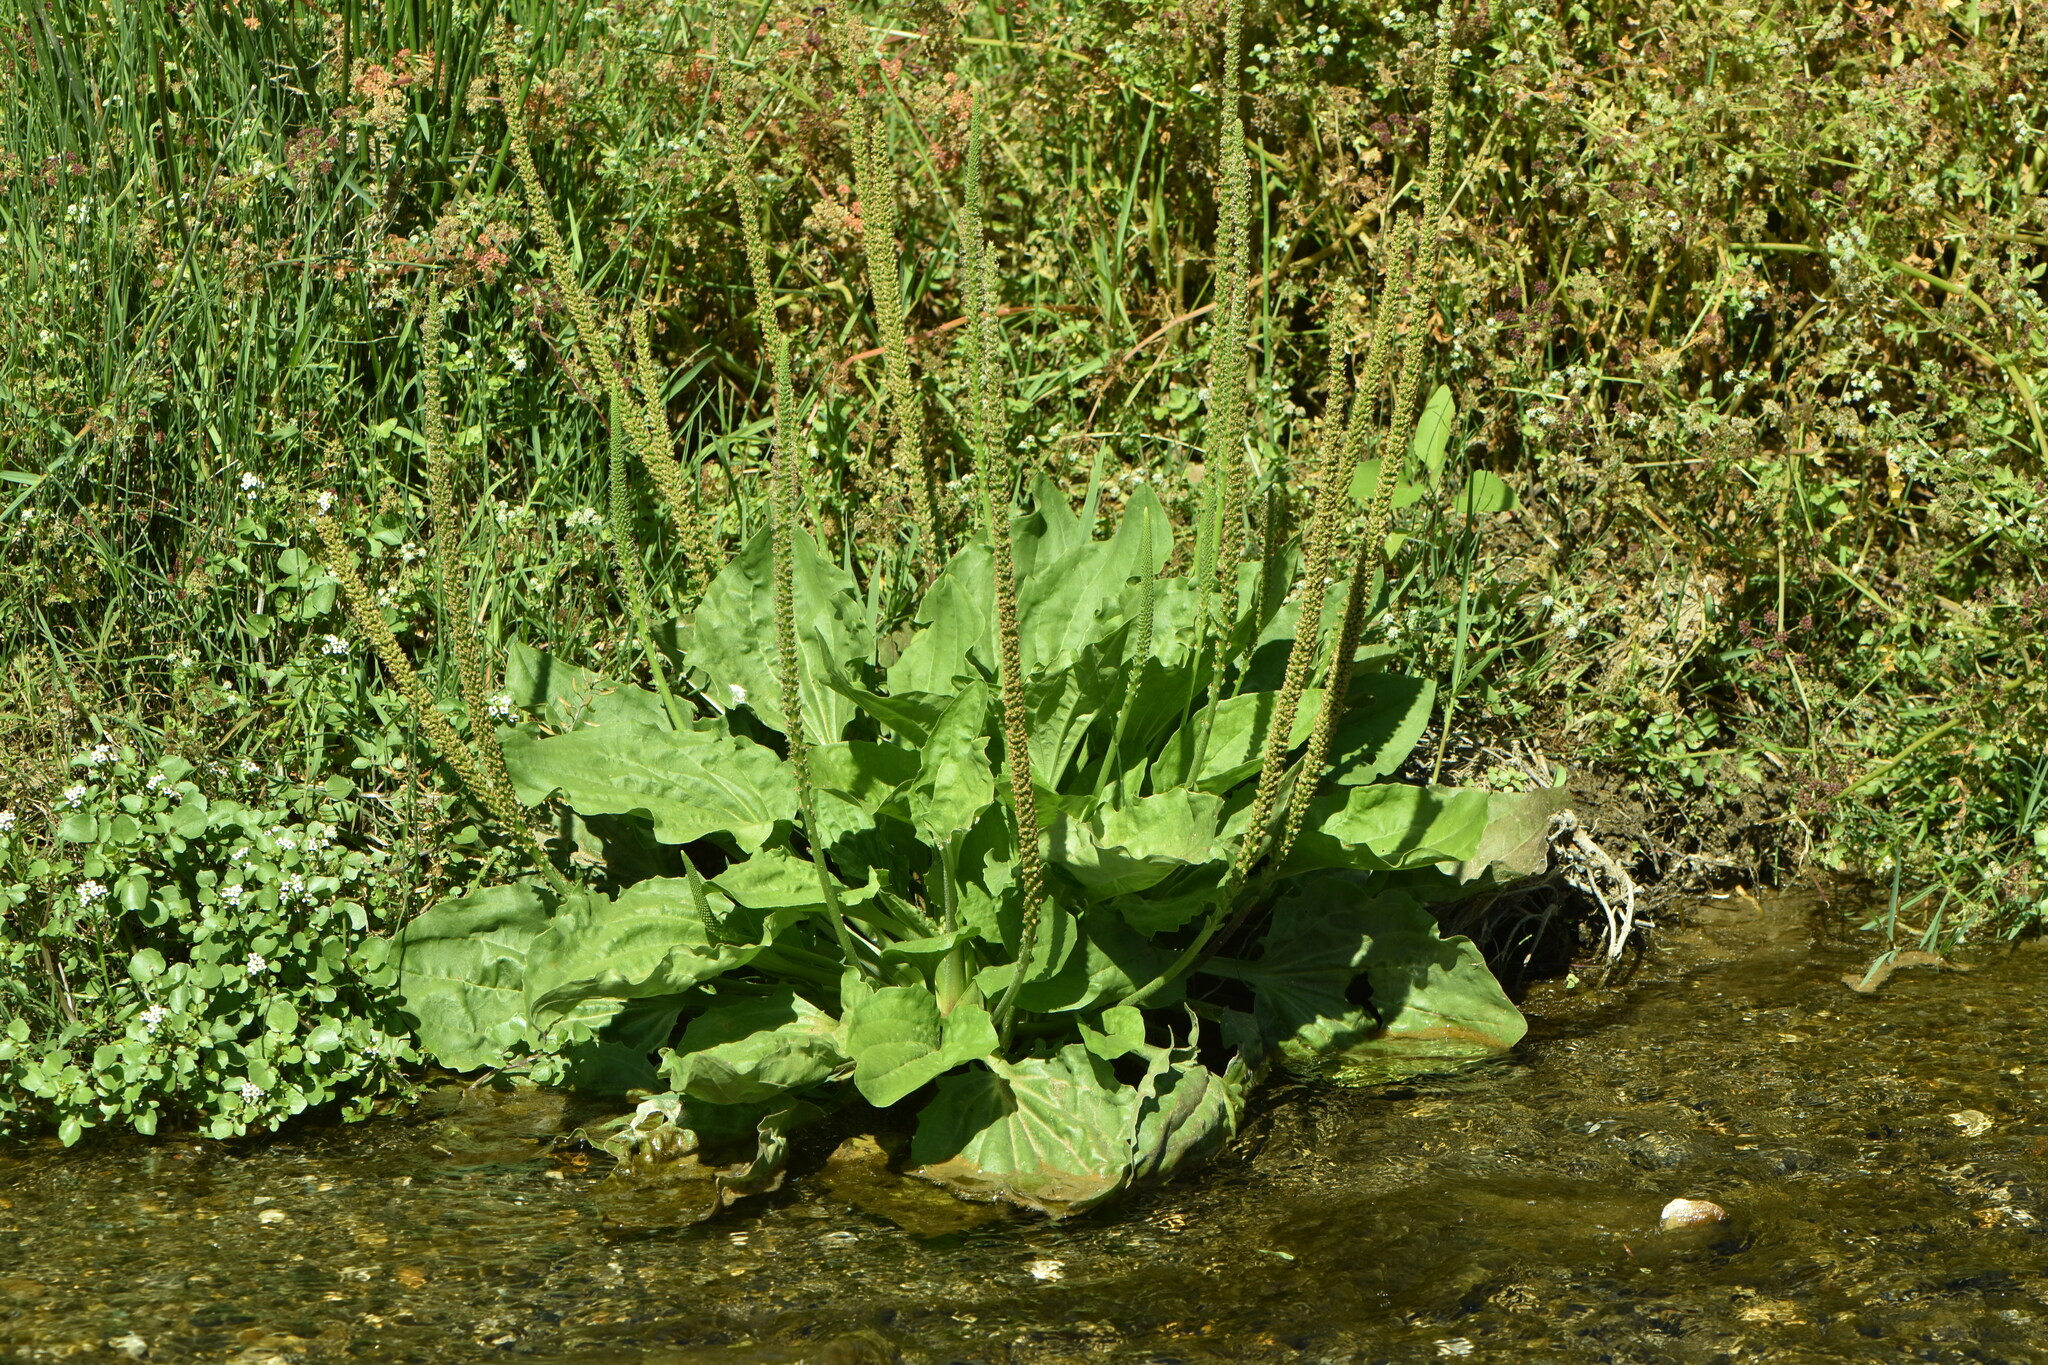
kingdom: Plantae
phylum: Tracheophyta
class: Magnoliopsida
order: Lamiales
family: Plantaginaceae
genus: Plantago
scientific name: Plantago major
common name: Common plantain
